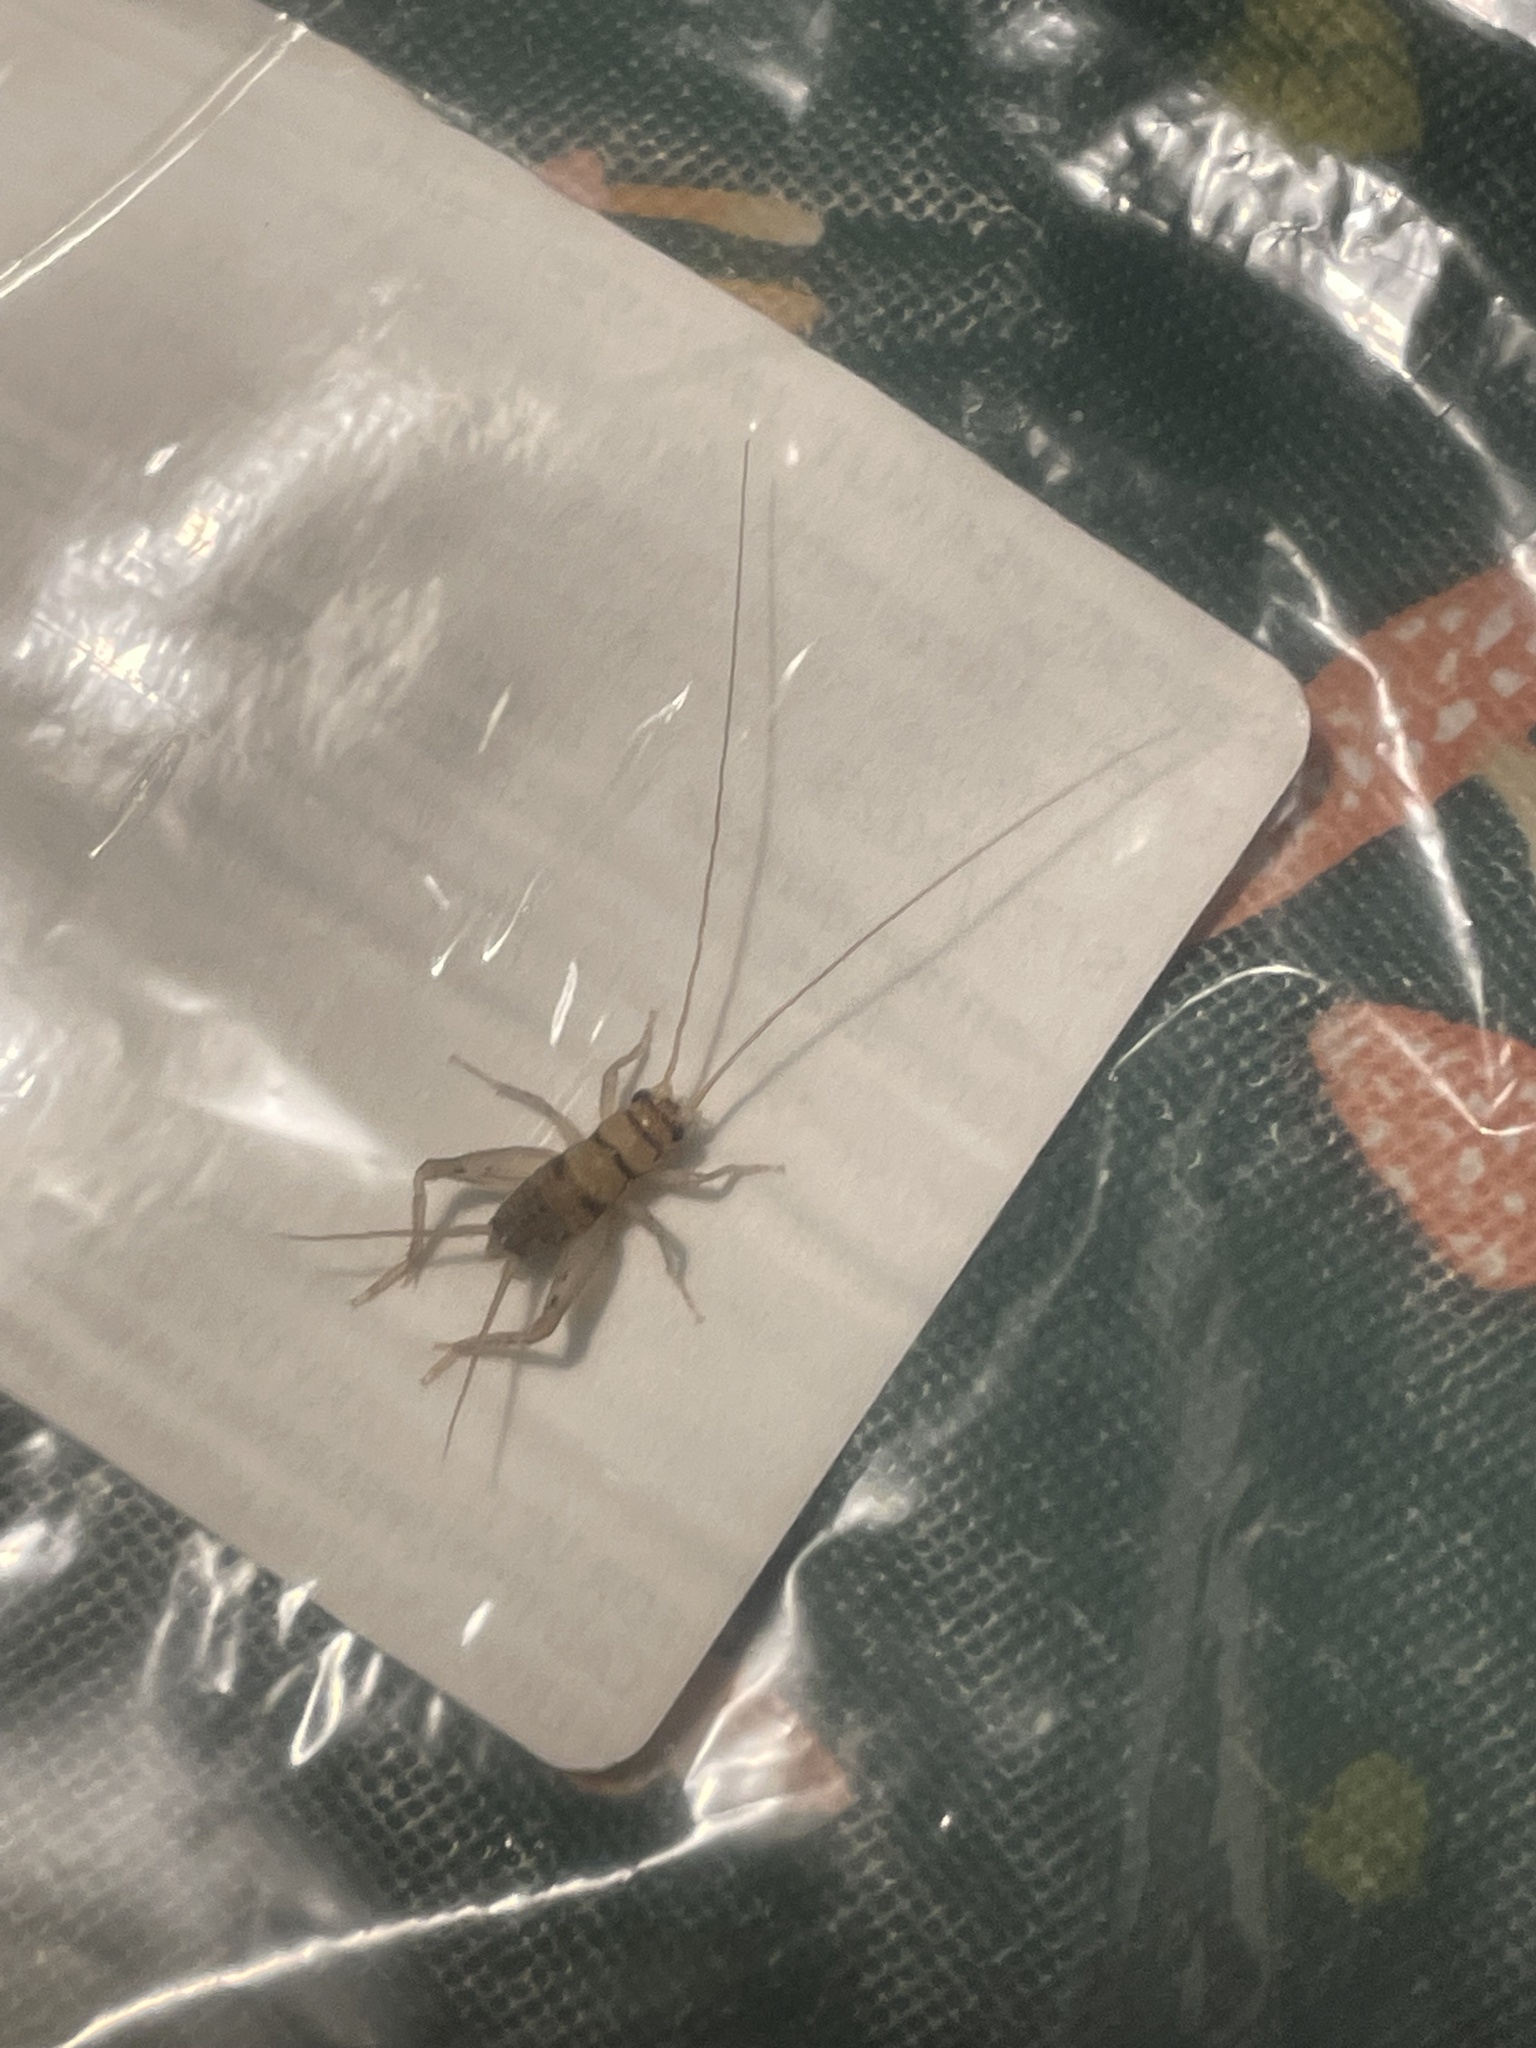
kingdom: Animalia
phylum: Arthropoda
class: Insecta
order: Orthoptera
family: Gryllidae
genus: Gryllodes
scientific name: Gryllodes sigillatus
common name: Tropical house cricket
